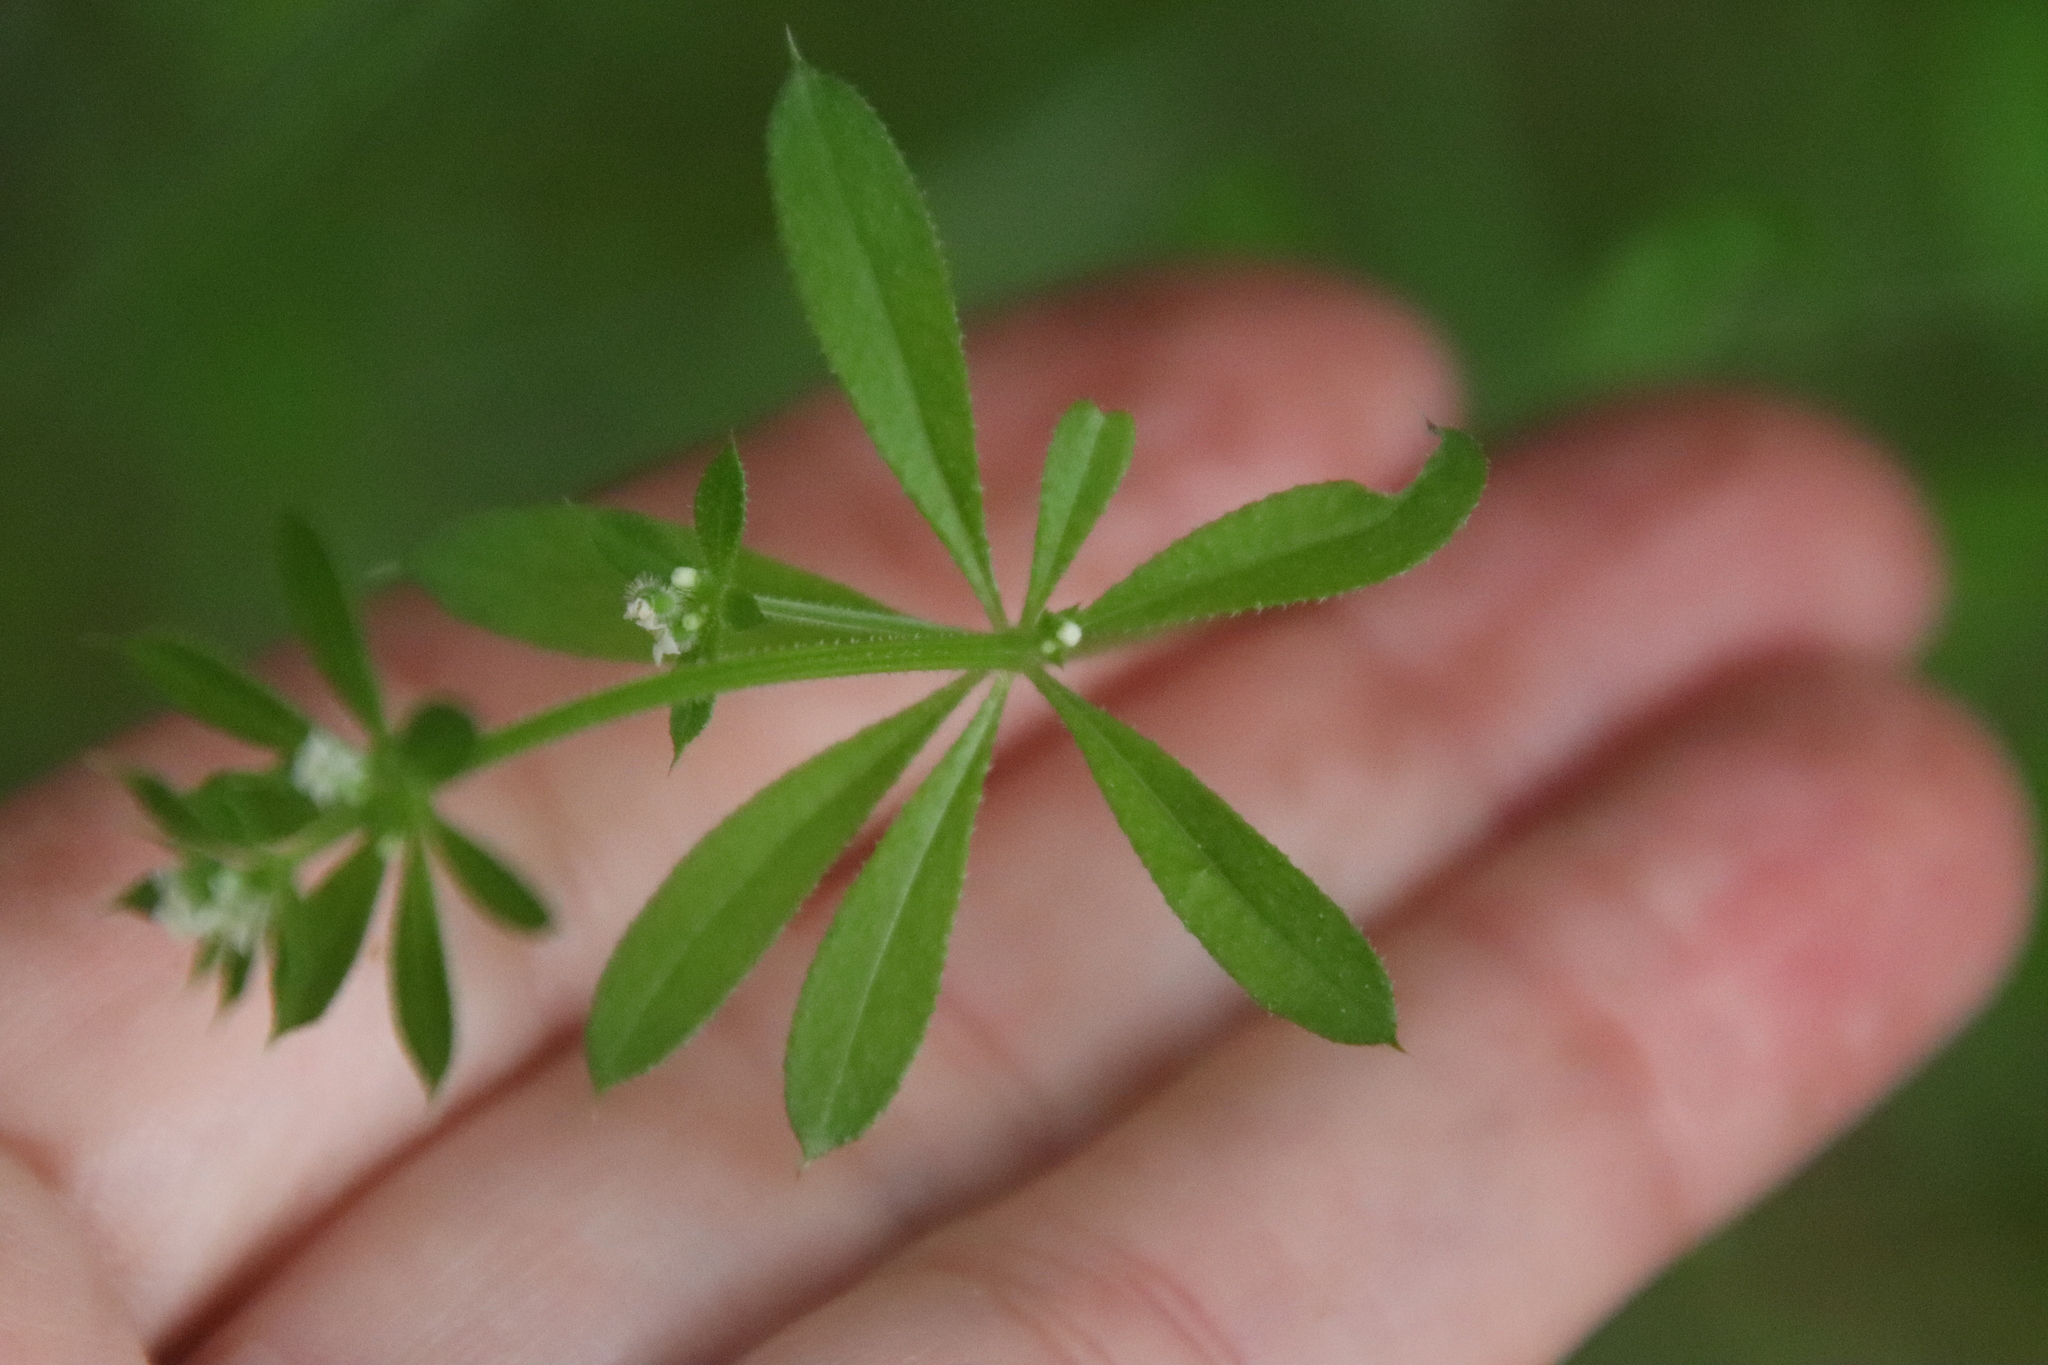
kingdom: Plantae
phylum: Tracheophyta
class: Magnoliopsida
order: Gentianales
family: Rubiaceae
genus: Galium
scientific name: Galium aparine
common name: Cleavers
